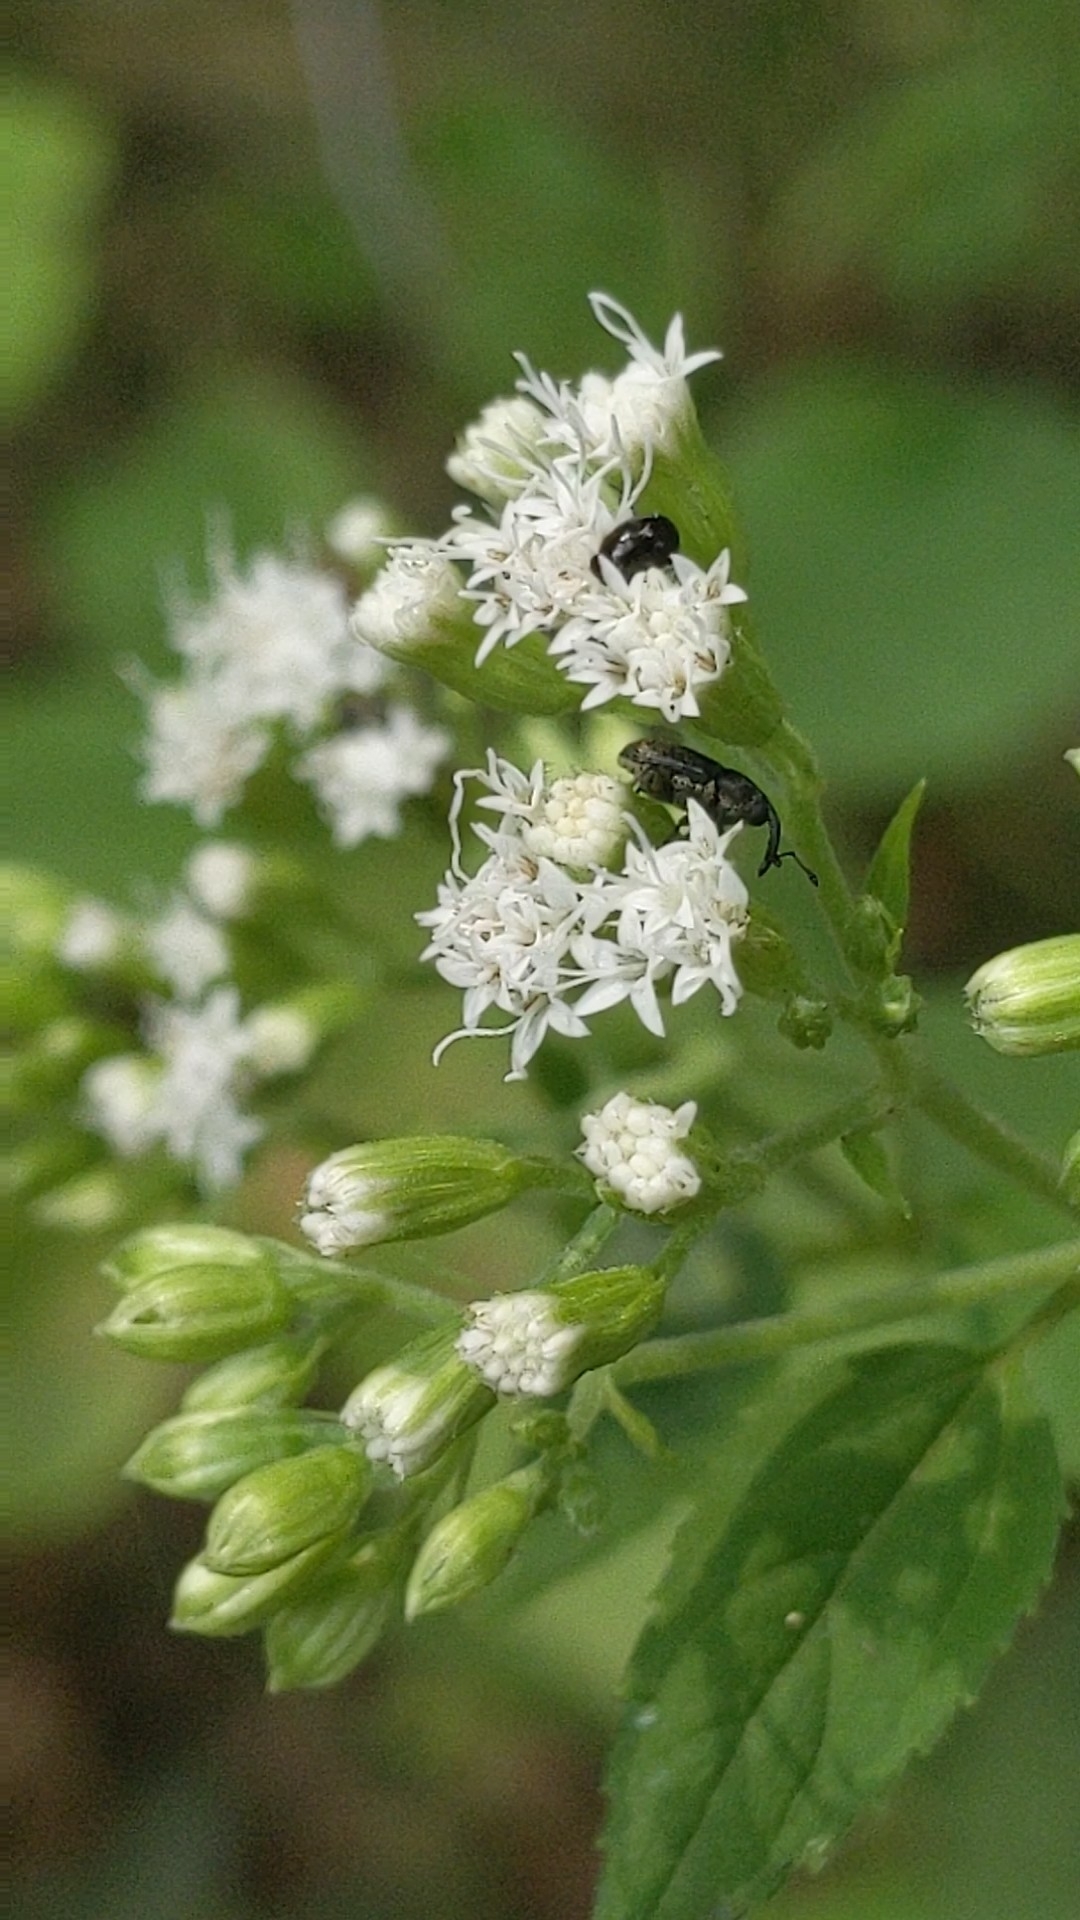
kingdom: Plantae
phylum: Tracheophyta
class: Magnoliopsida
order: Asterales
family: Asteraceae
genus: Ageratina
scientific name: Ageratina altissima
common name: White snakeroot
